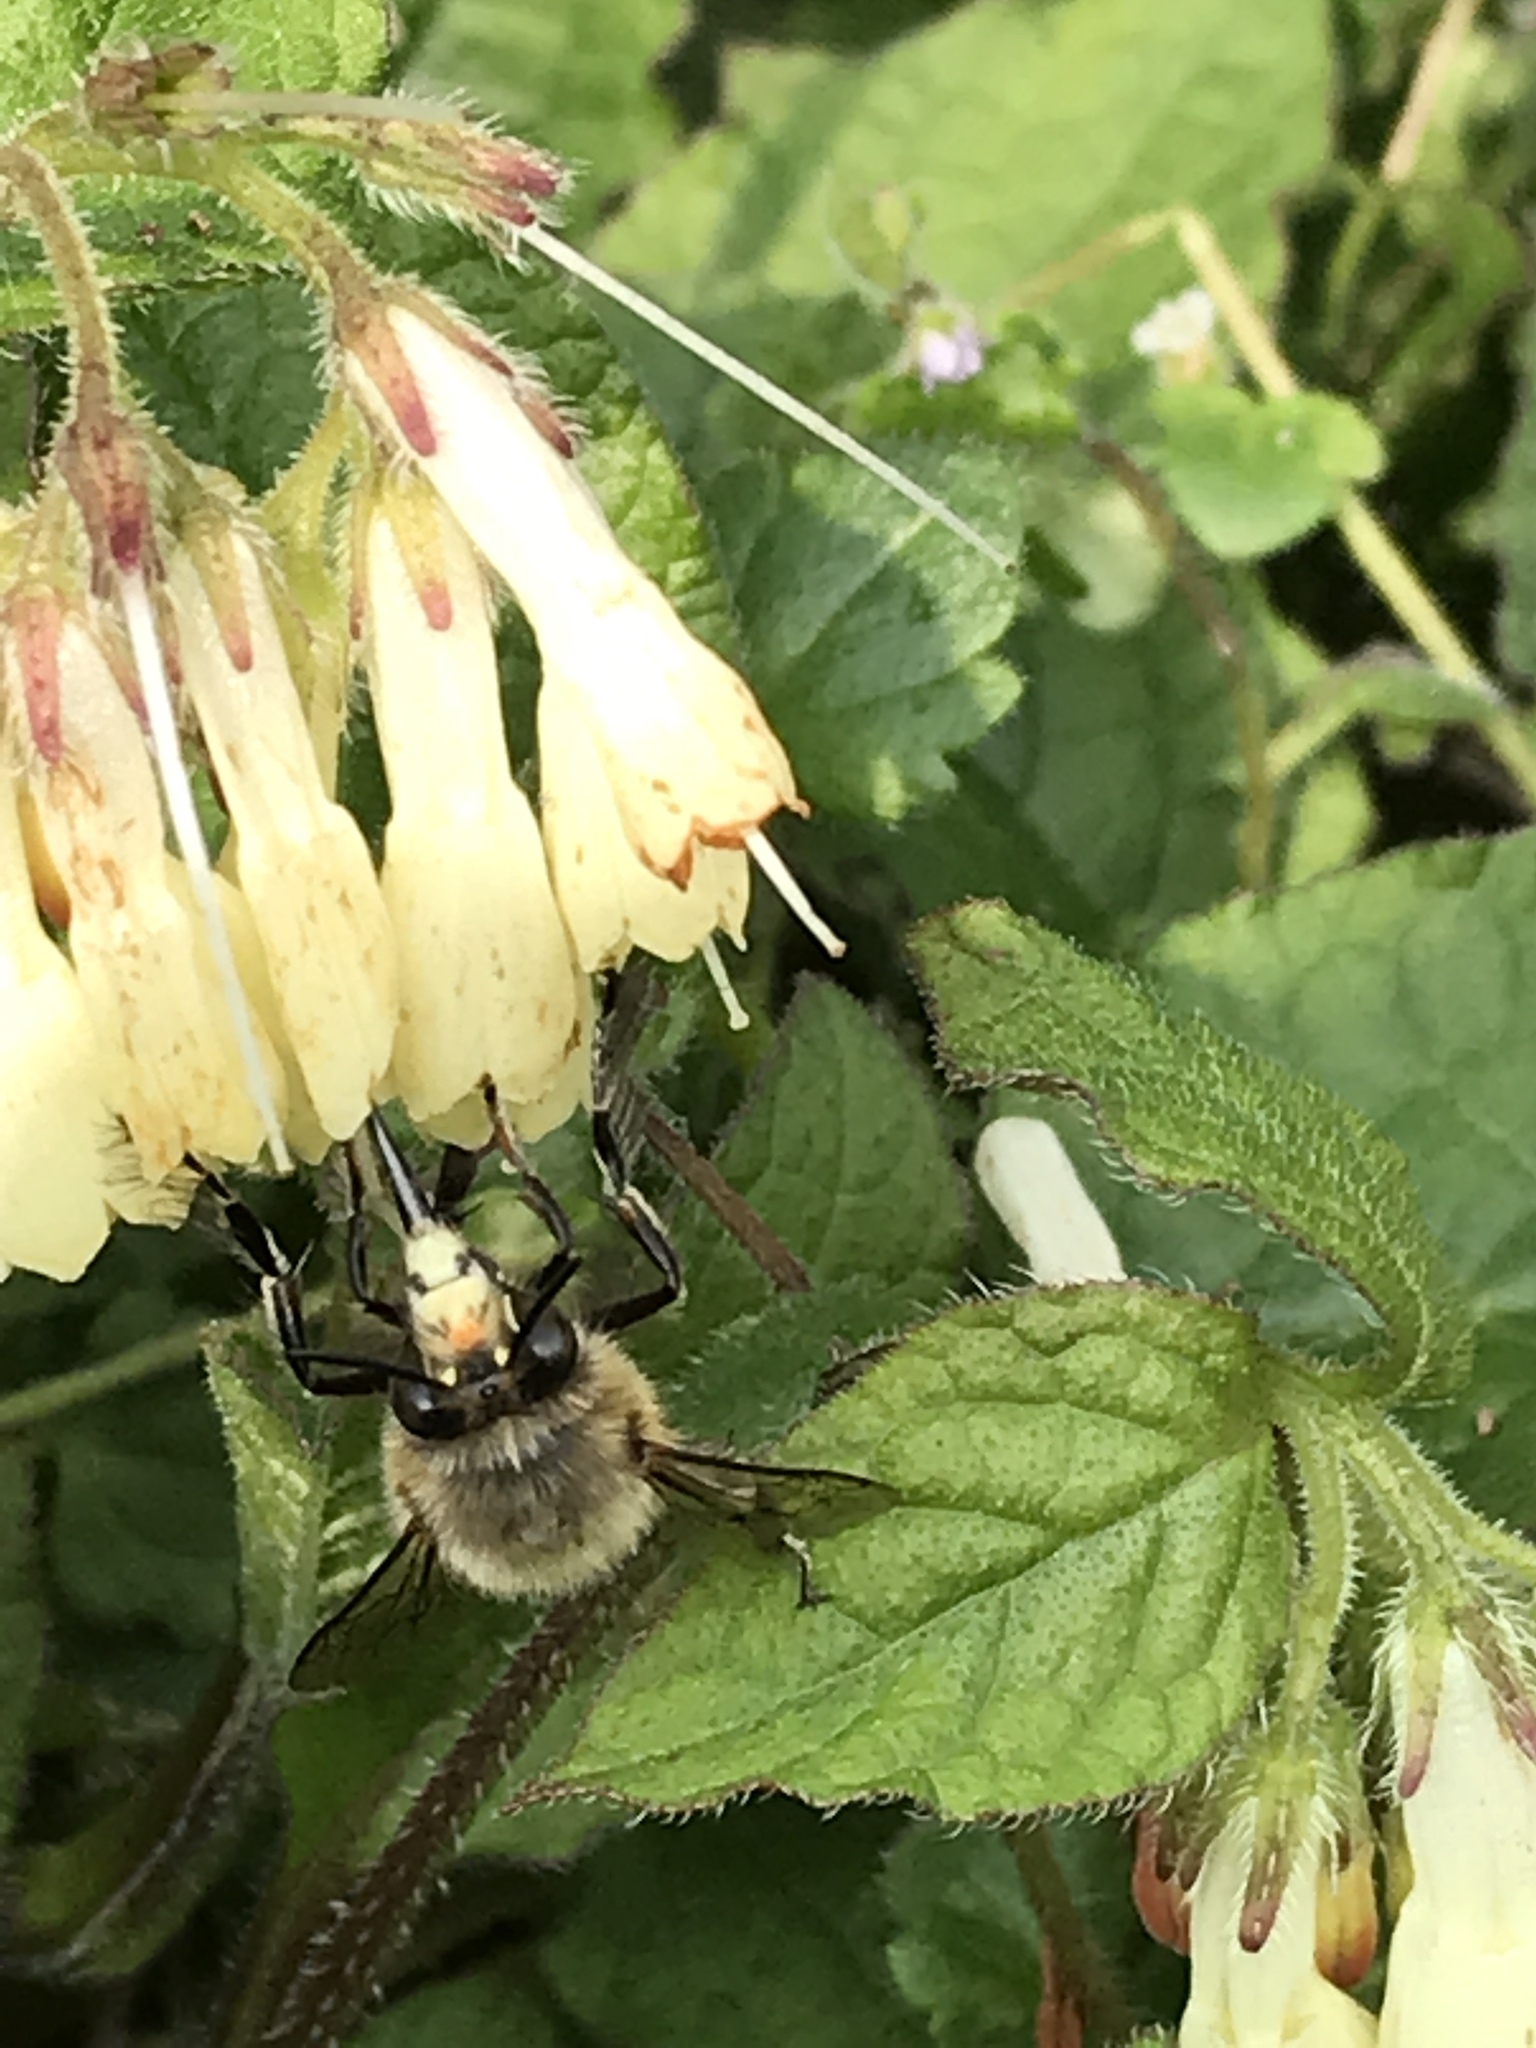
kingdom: Animalia
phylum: Arthropoda
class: Insecta
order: Hymenoptera
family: Apidae
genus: Anthophora
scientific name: Anthophora plumipes
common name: Hairy-footed flower bee
